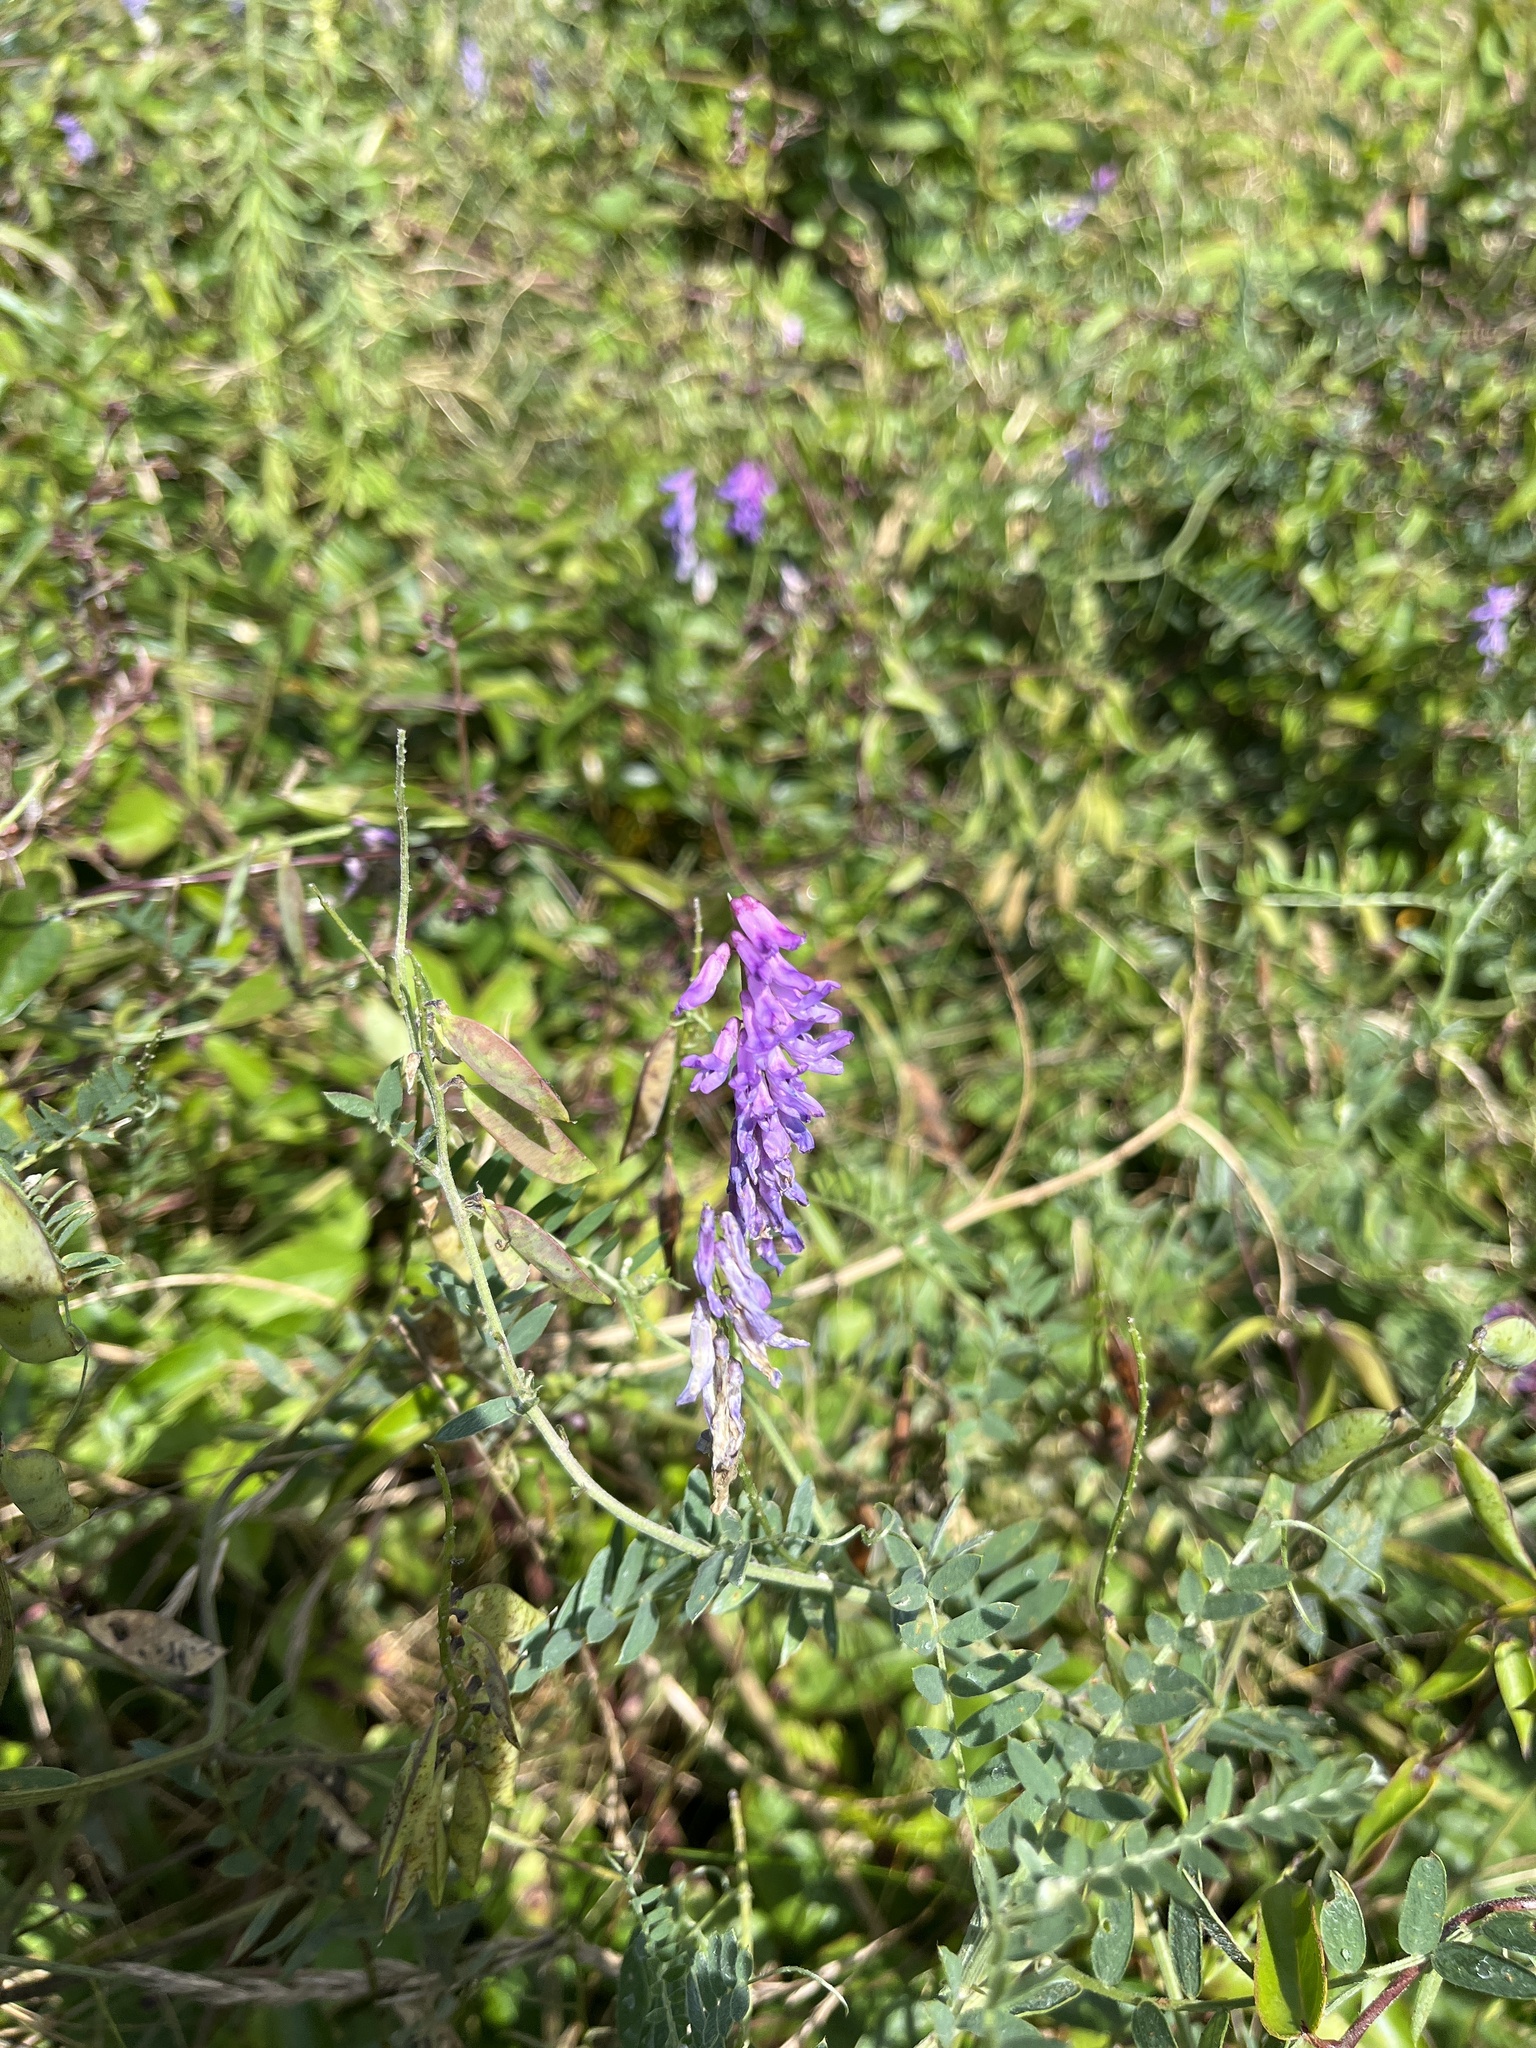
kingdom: Plantae
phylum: Tracheophyta
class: Magnoliopsida
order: Fabales
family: Fabaceae
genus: Vicia
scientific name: Vicia cracca
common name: Bird vetch
